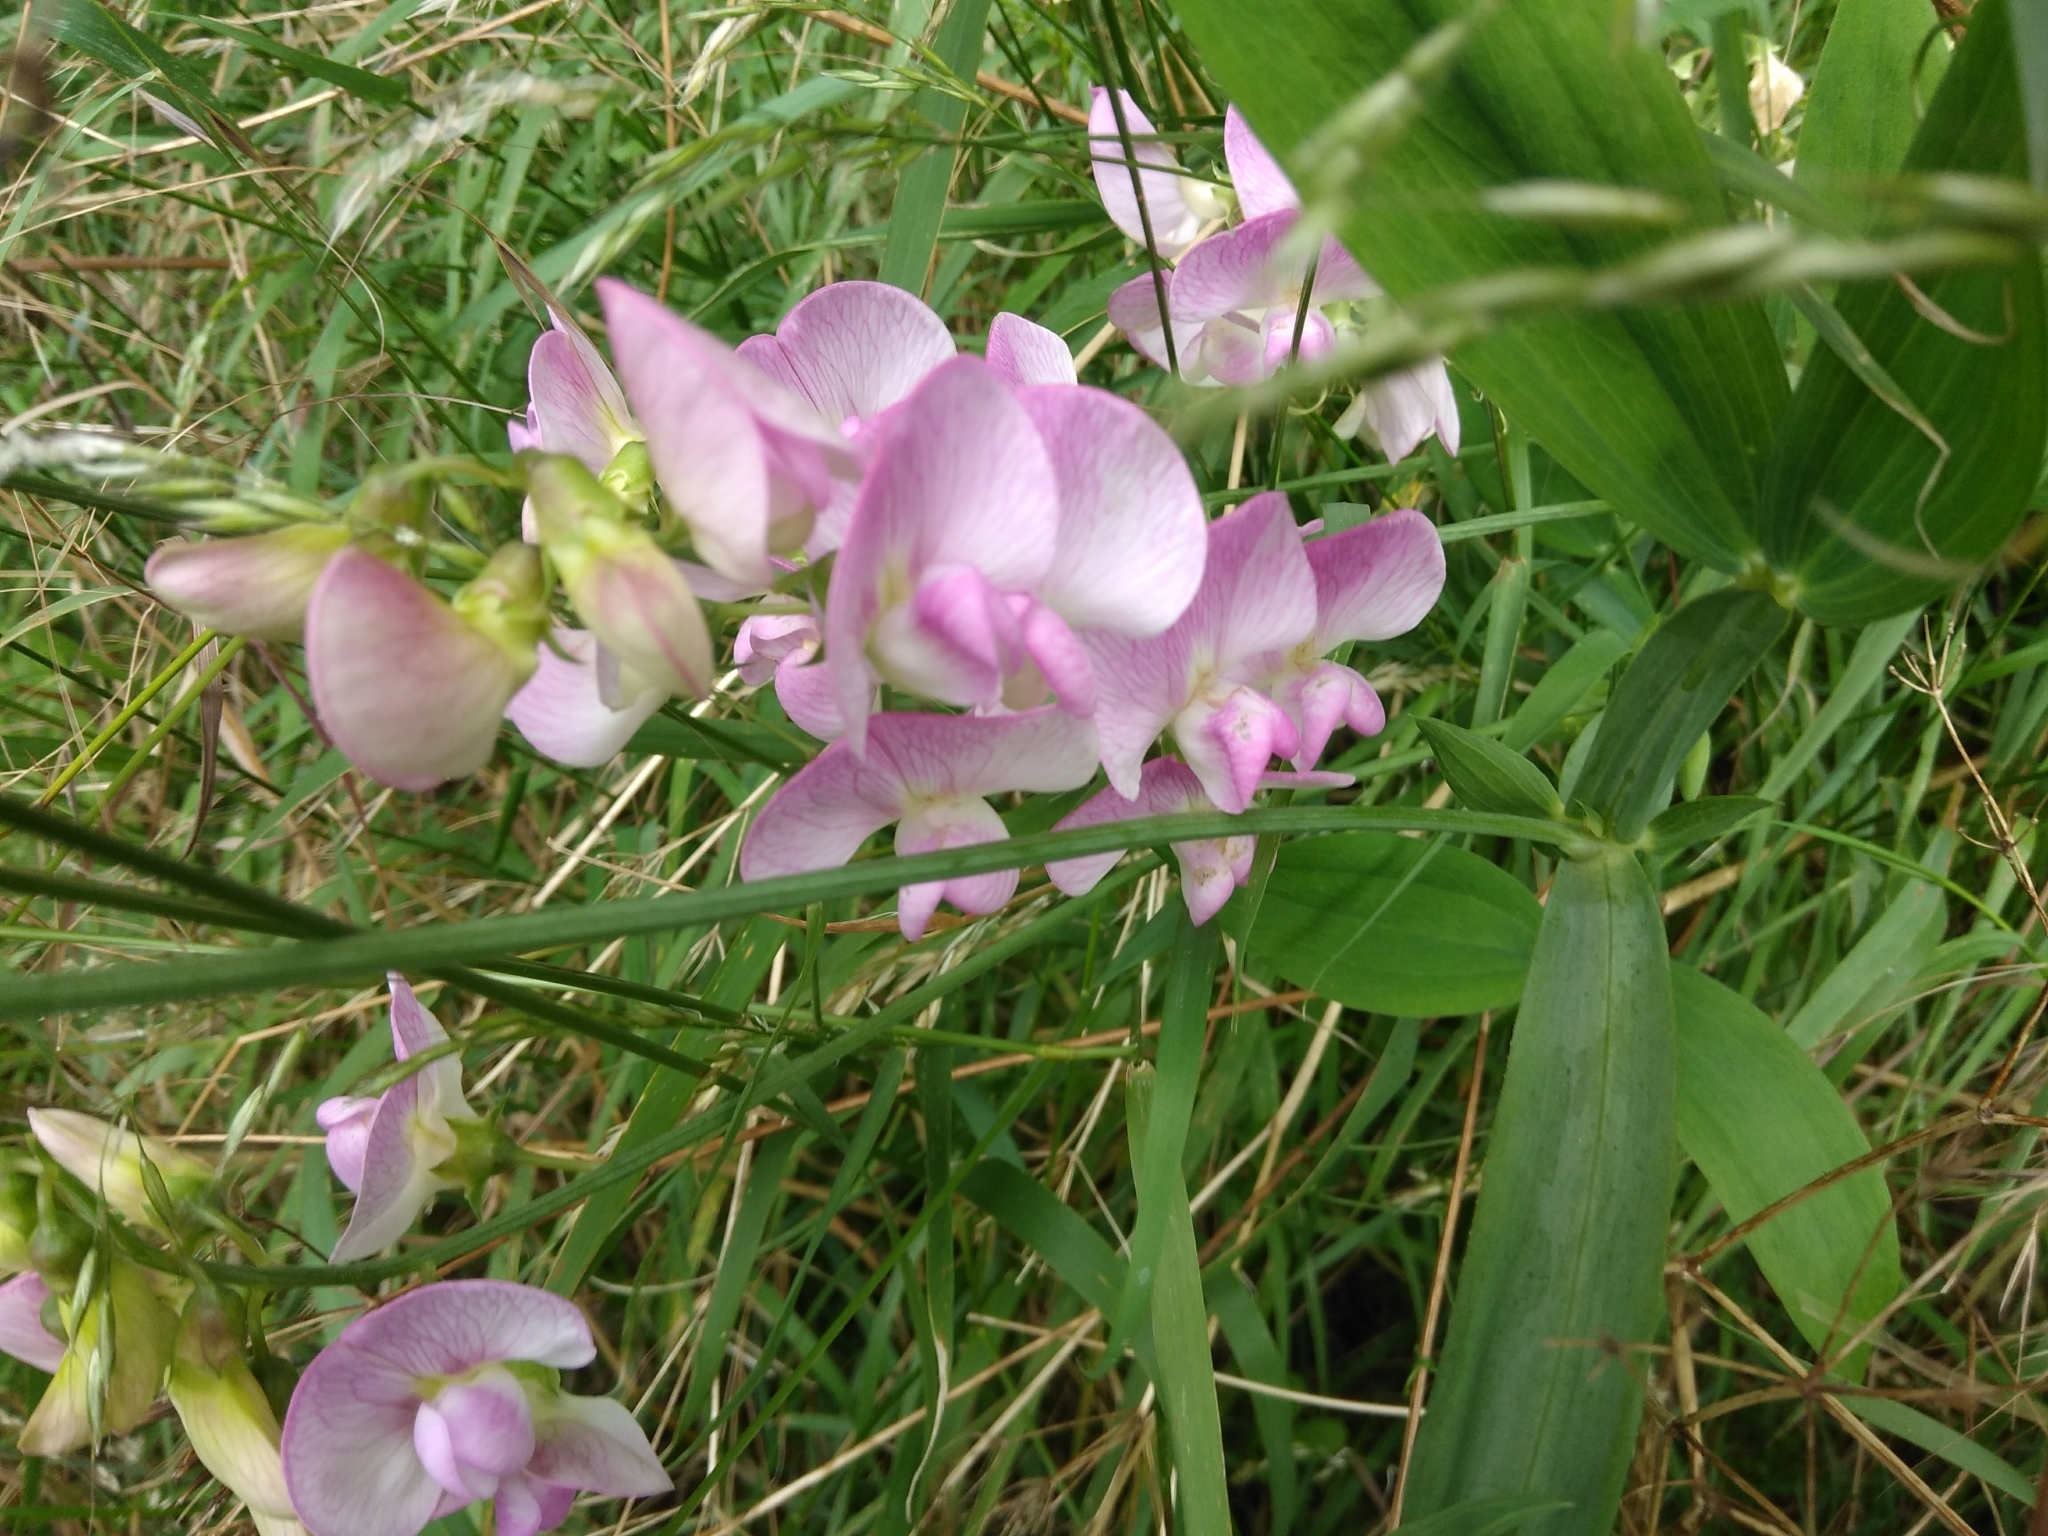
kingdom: Plantae
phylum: Tracheophyta
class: Magnoliopsida
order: Fabales
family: Fabaceae
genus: Lathyrus
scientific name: Lathyrus latifolius
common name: Perennial pea
